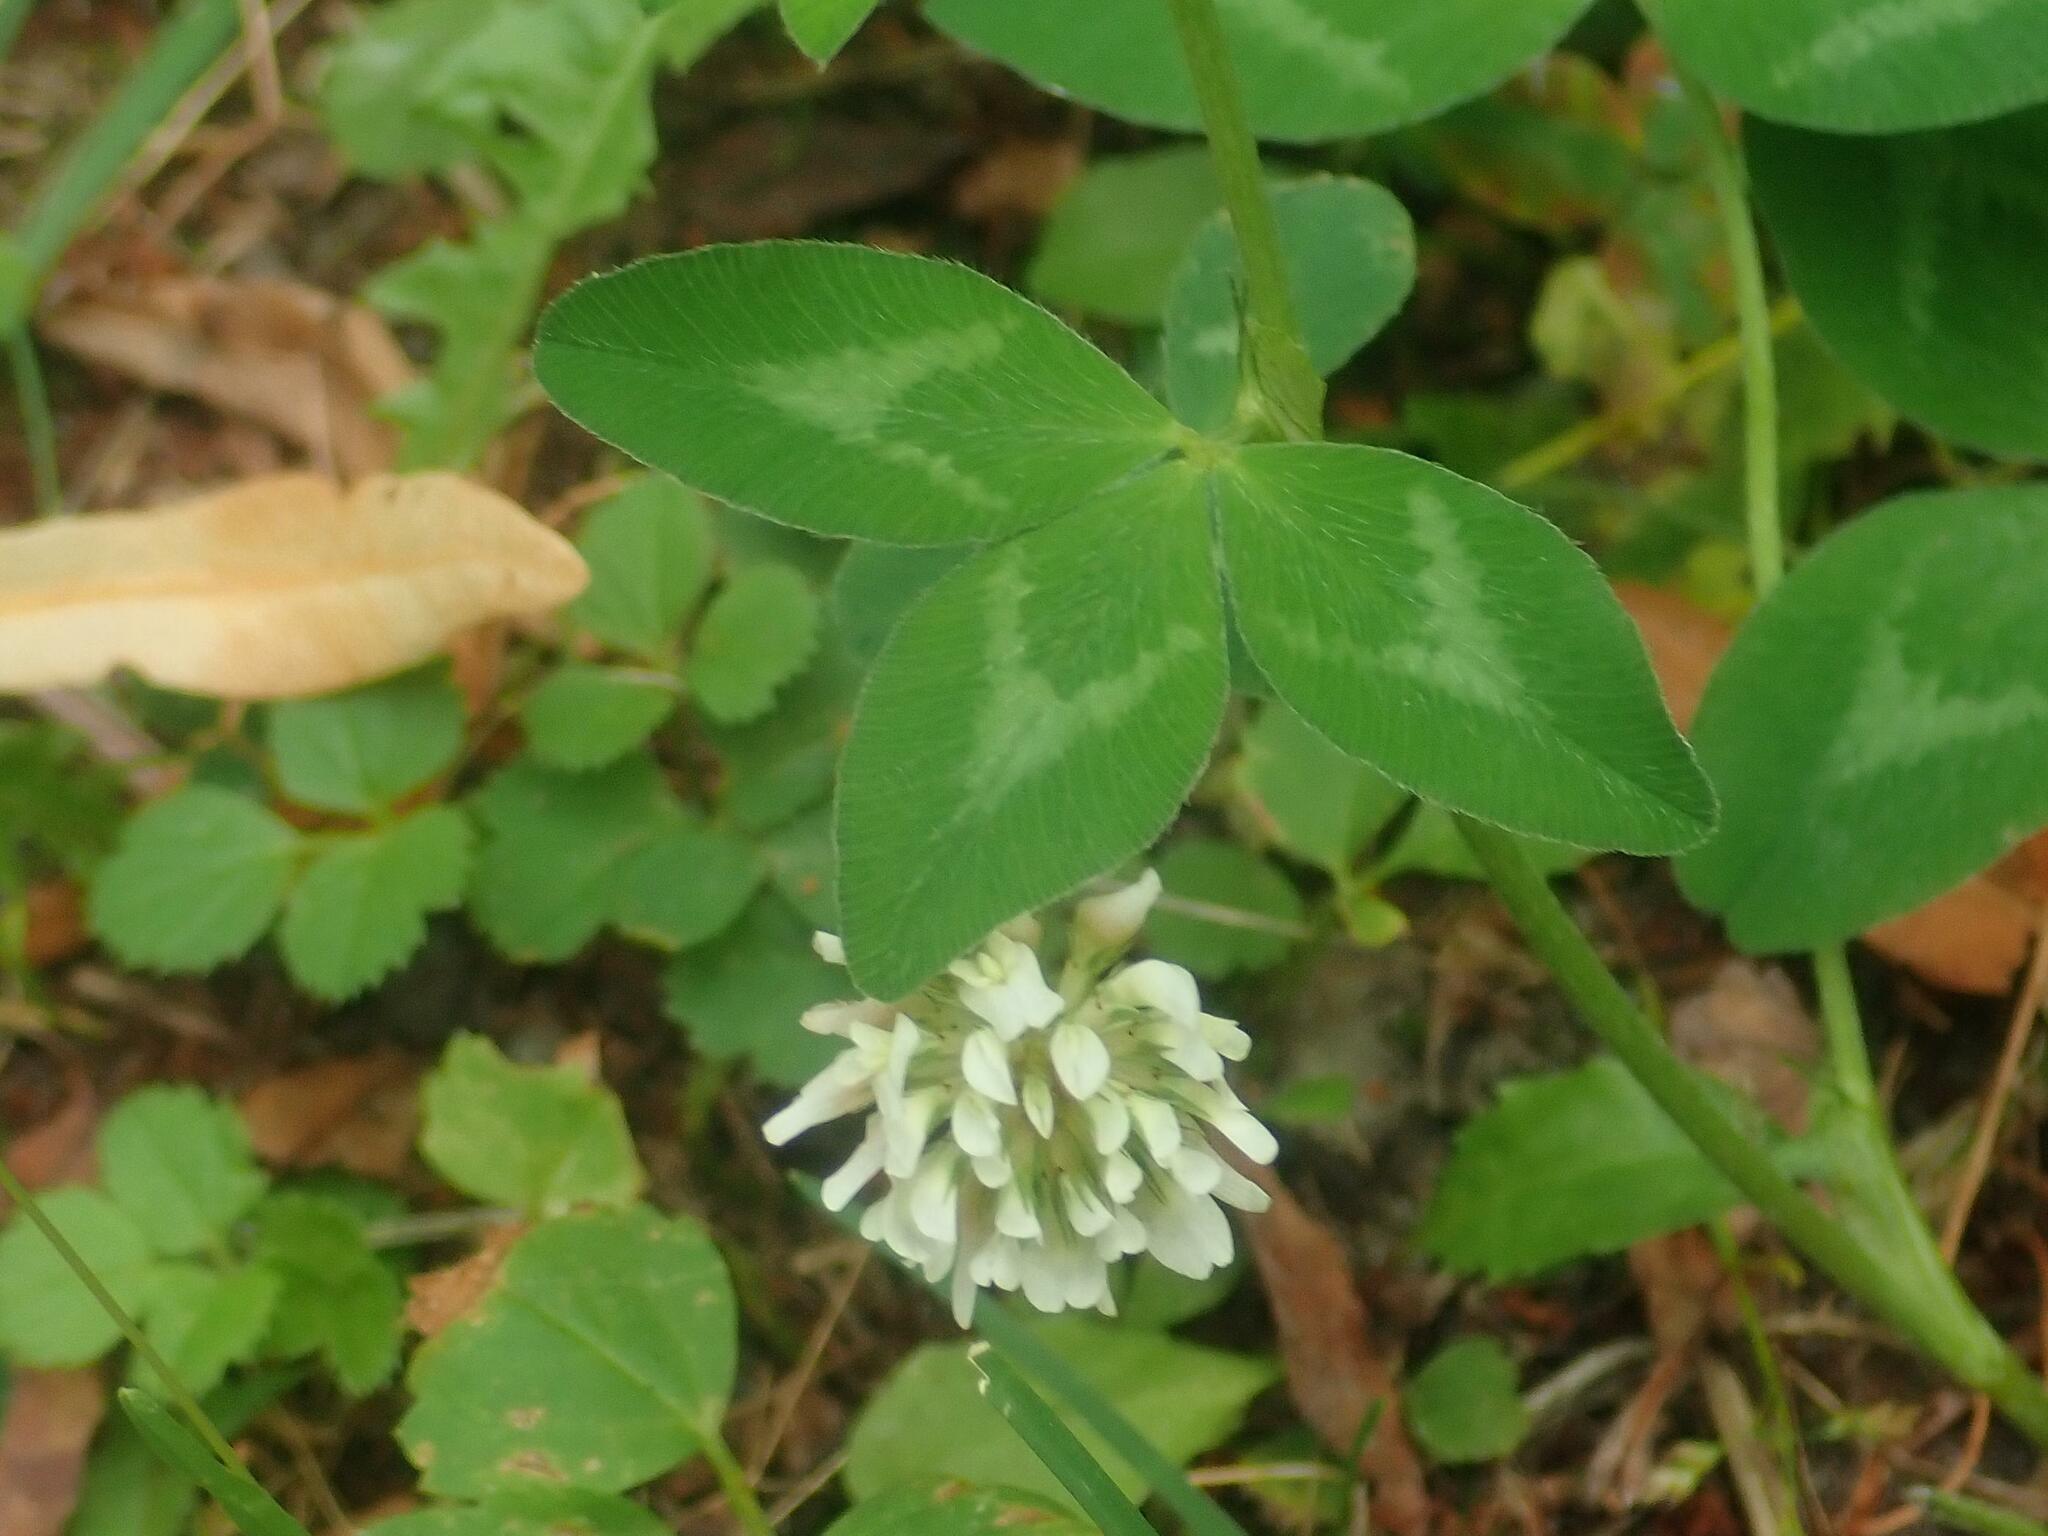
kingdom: Plantae
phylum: Tracheophyta
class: Magnoliopsida
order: Fabales
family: Fabaceae
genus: Trifolium
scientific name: Trifolium repens
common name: White clover
